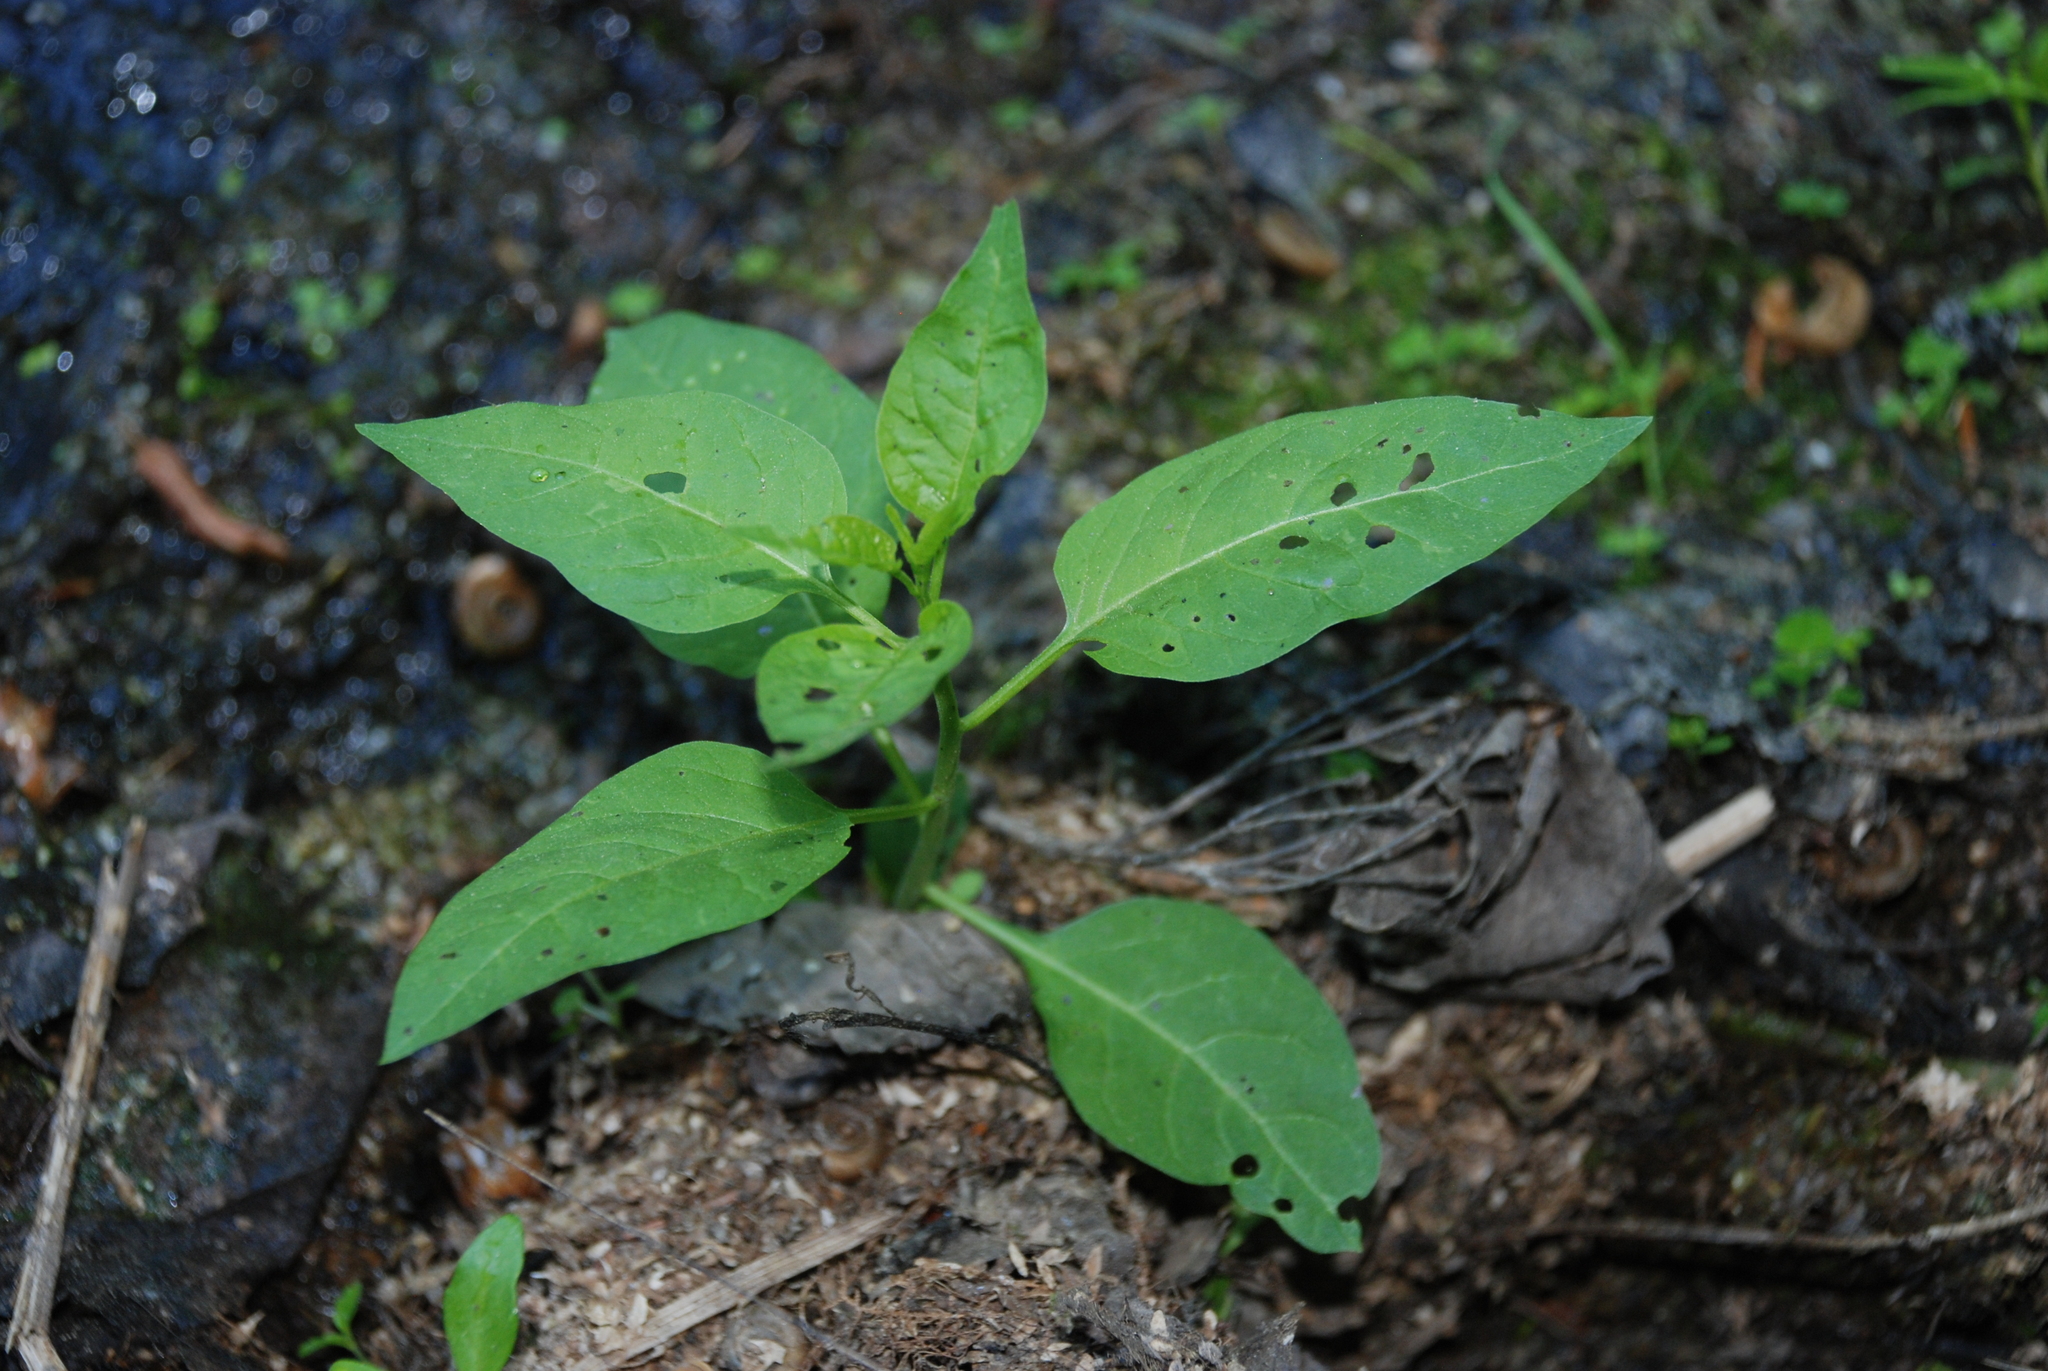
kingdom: Plantae
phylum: Tracheophyta
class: Magnoliopsida
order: Solanales
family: Solanaceae
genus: Solanum
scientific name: Solanum dulcamara
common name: Climbing nightshade
